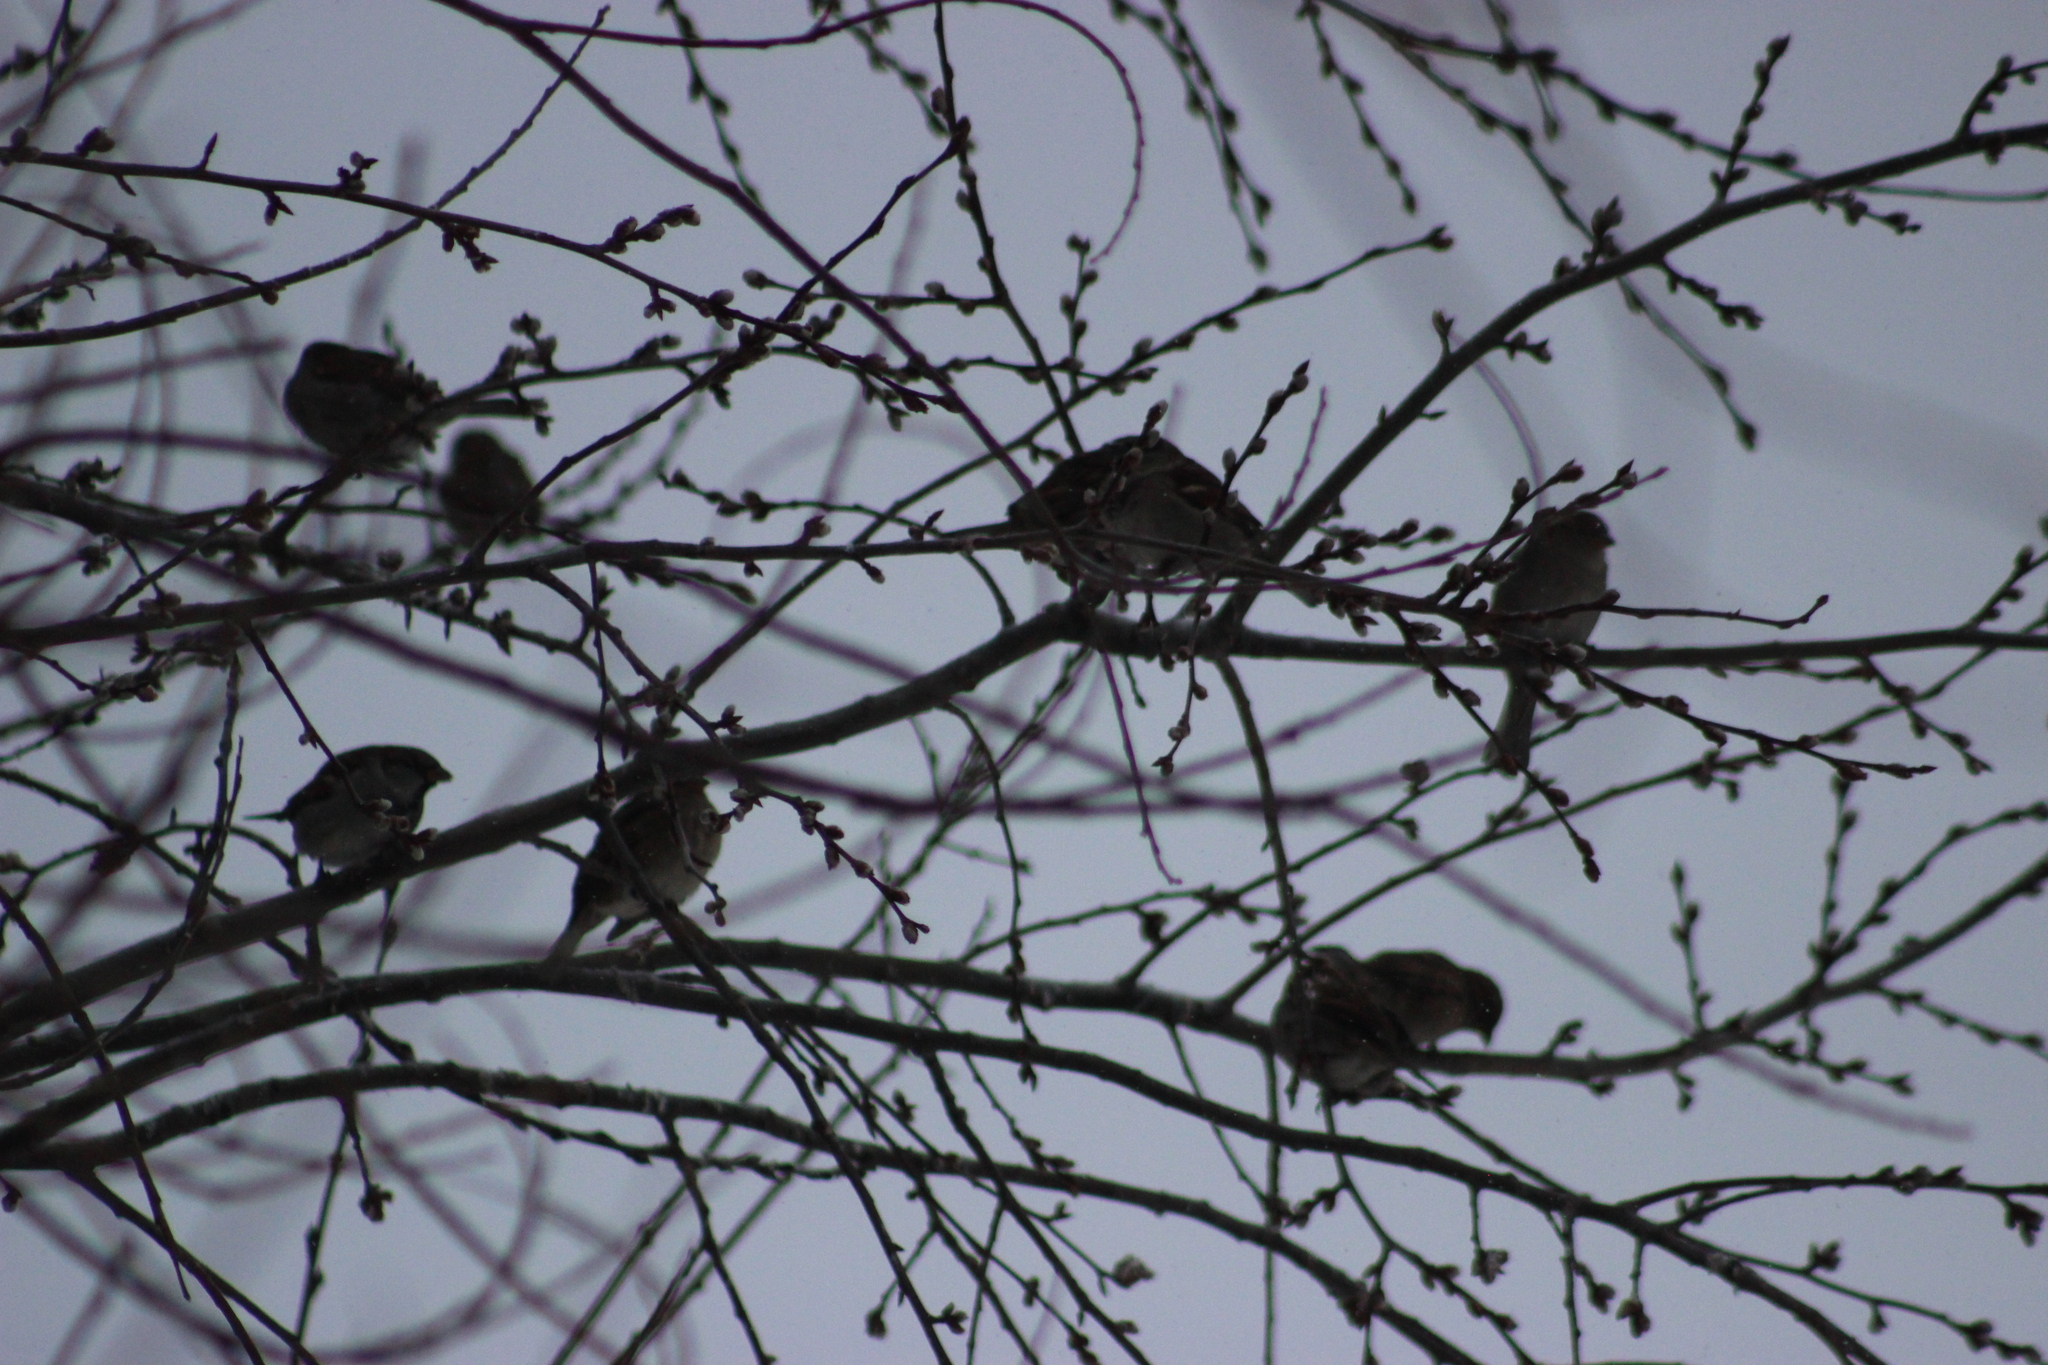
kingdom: Animalia
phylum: Chordata
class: Aves
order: Passeriformes
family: Passeridae
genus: Passer
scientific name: Passer domesticus
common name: House sparrow
